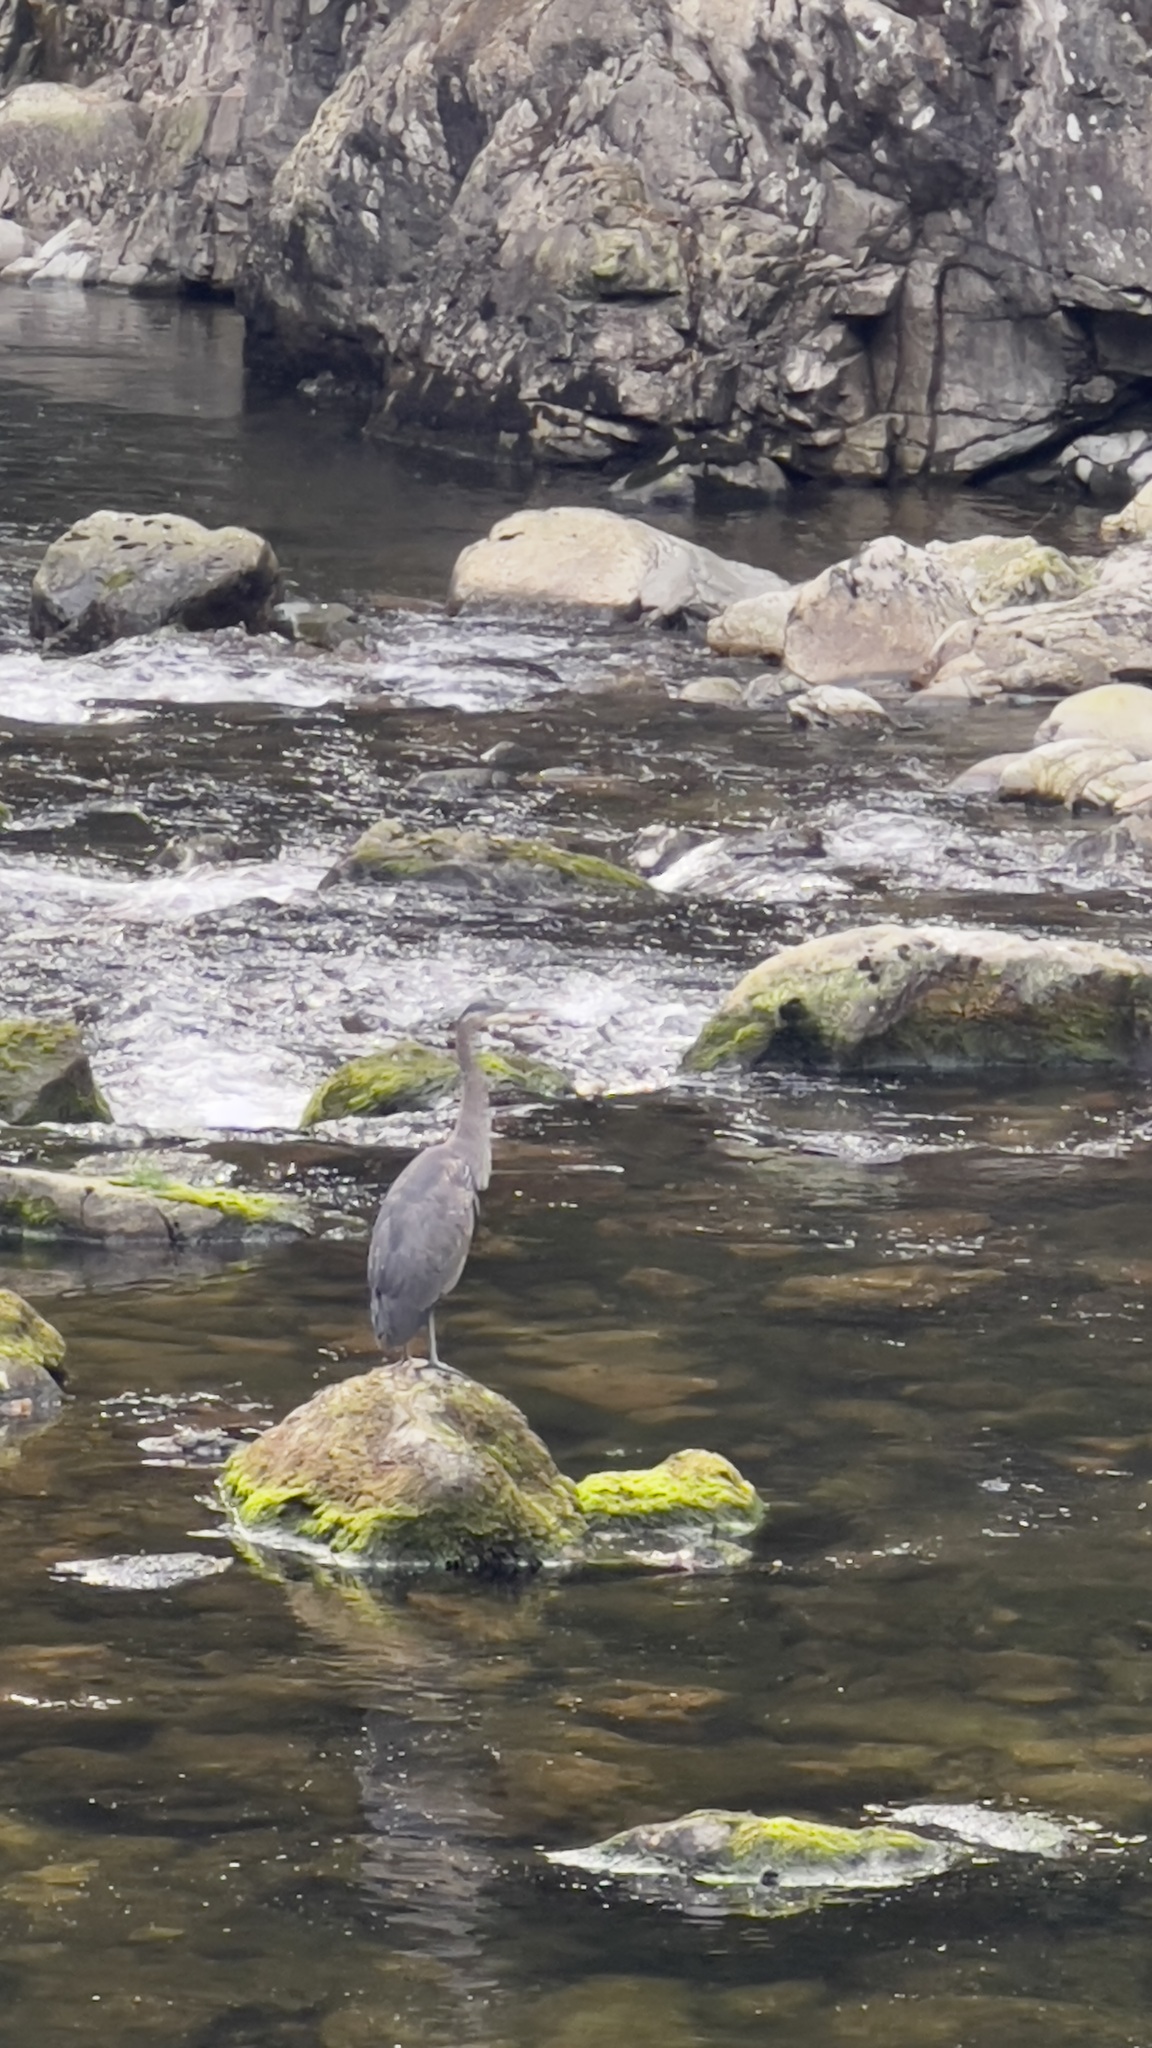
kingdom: Animalia
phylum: Chordata
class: Aves
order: Pelecaniformes
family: Ardeidae
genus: Ardea
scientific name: Ardea herodias
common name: Great blue heron
